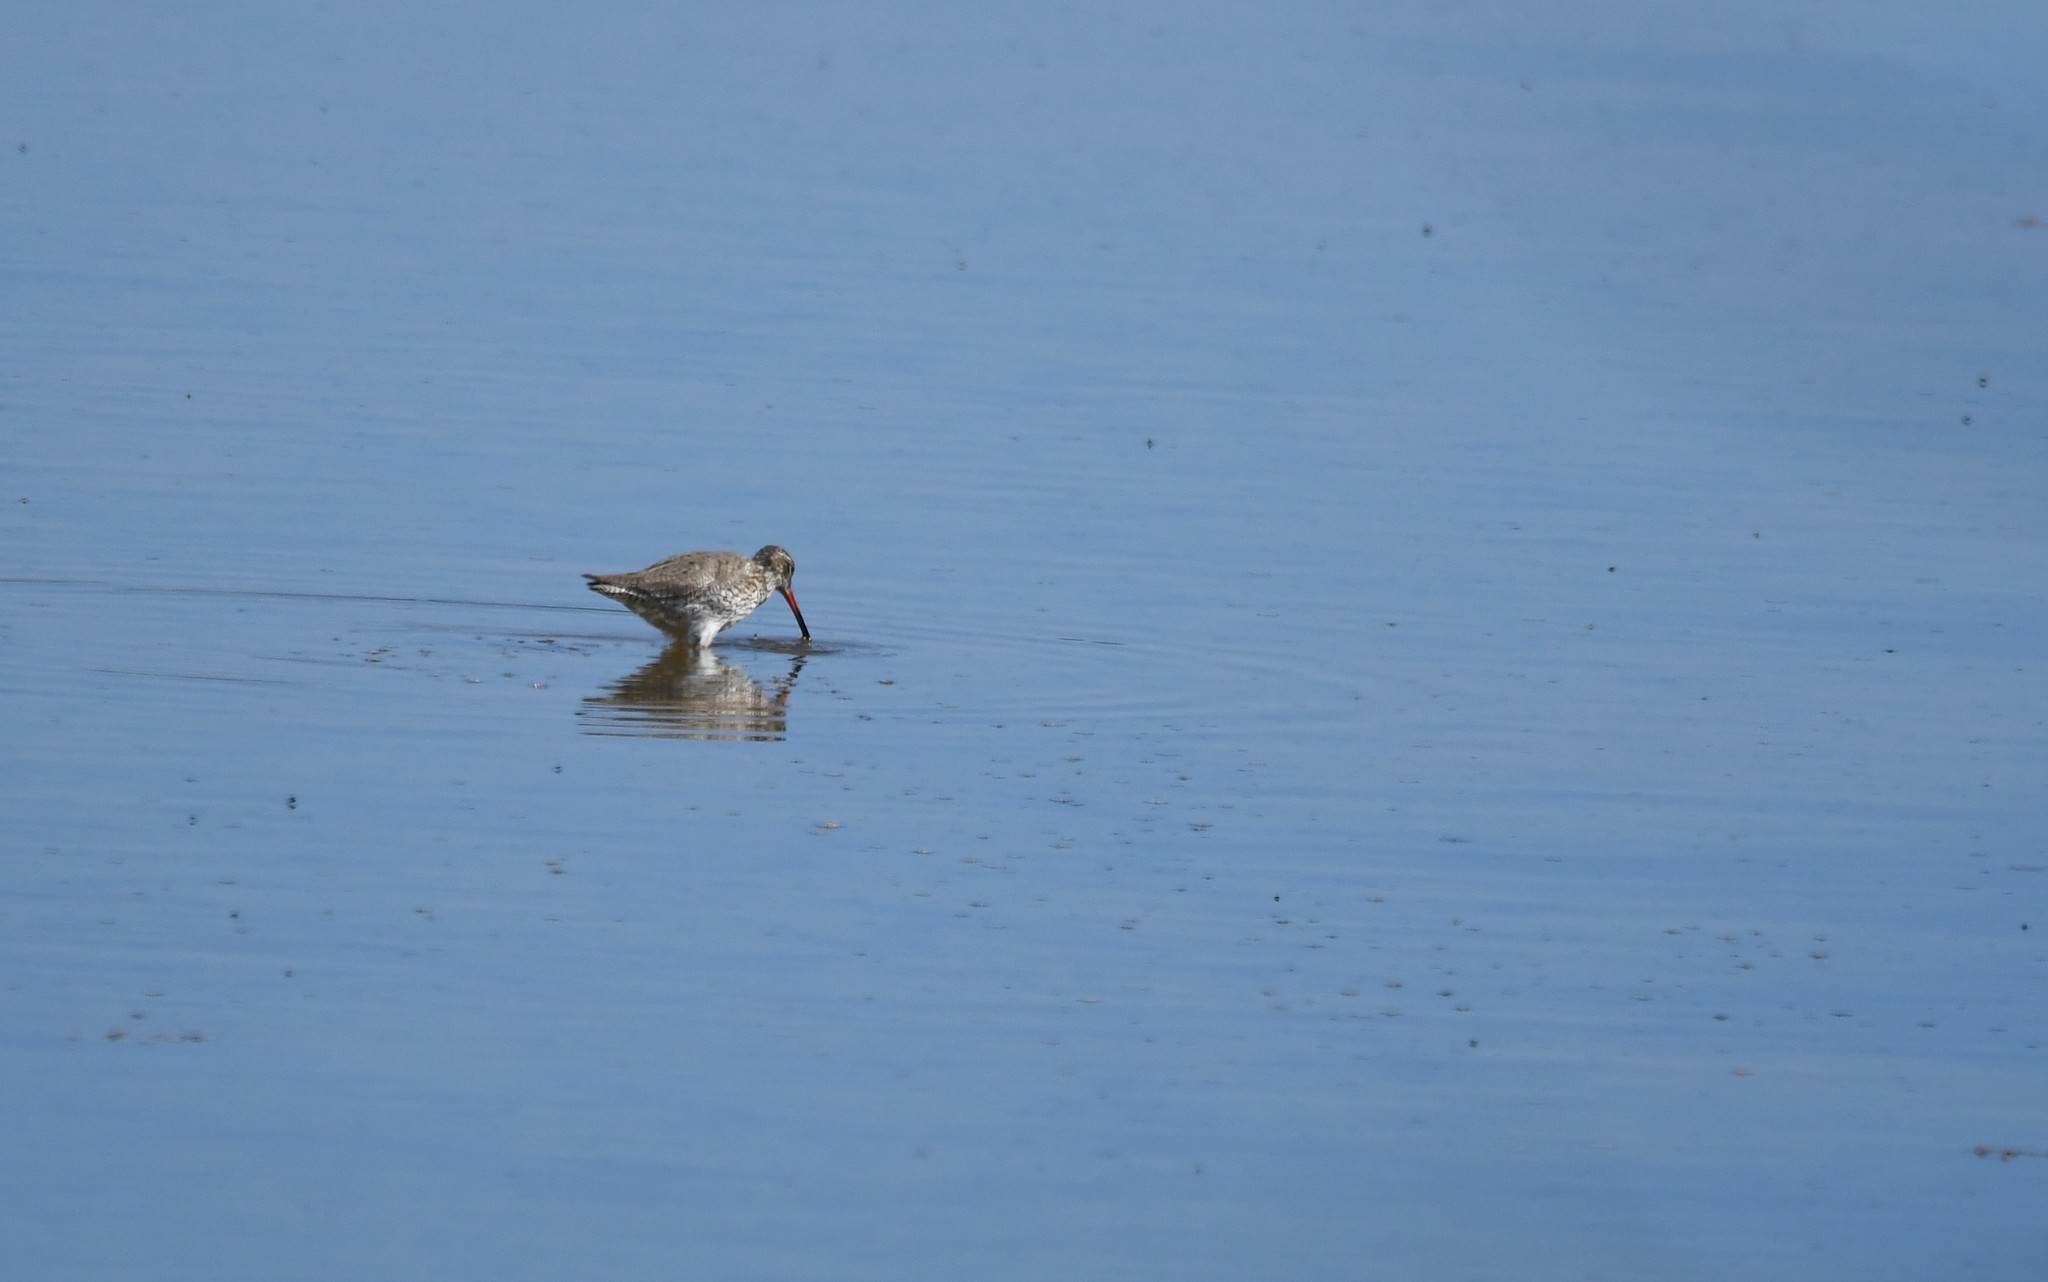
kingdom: Animalia
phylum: Chordata
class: Aves
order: Charadriiformes
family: Scolopacidae
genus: Tringa
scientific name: Tringa totanus
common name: Common redshank
